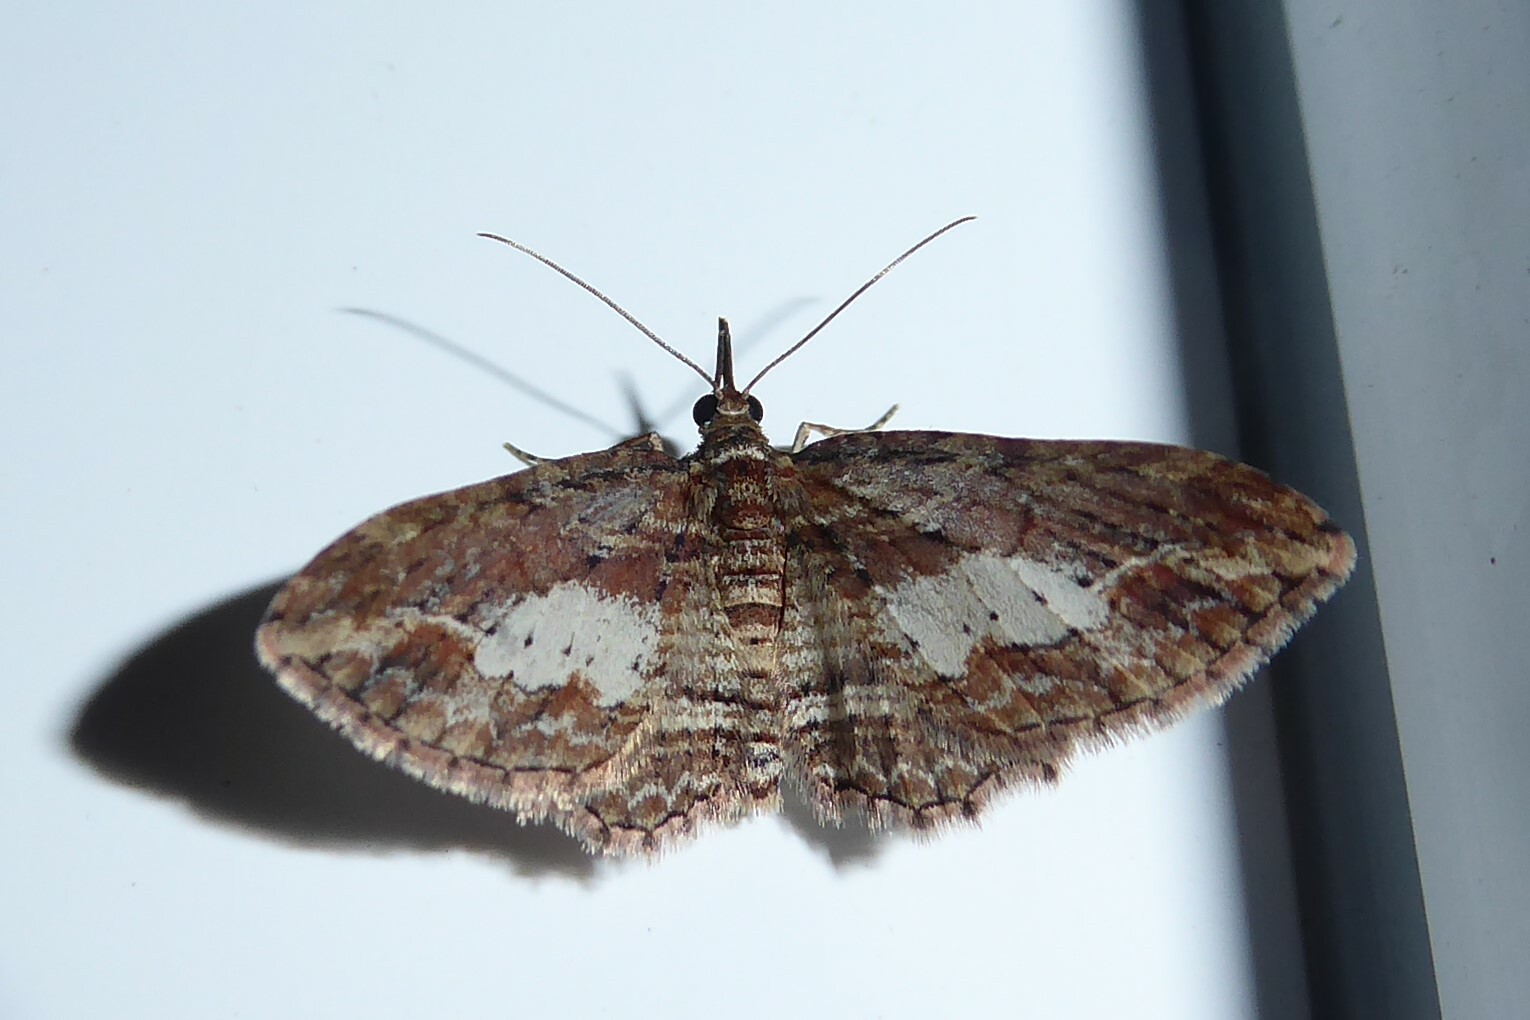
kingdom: Animalia
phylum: Arthropoda
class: Insecta
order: Lepidoptera
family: Geometridae
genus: Chloroclystis
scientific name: Chloroclystis filata
